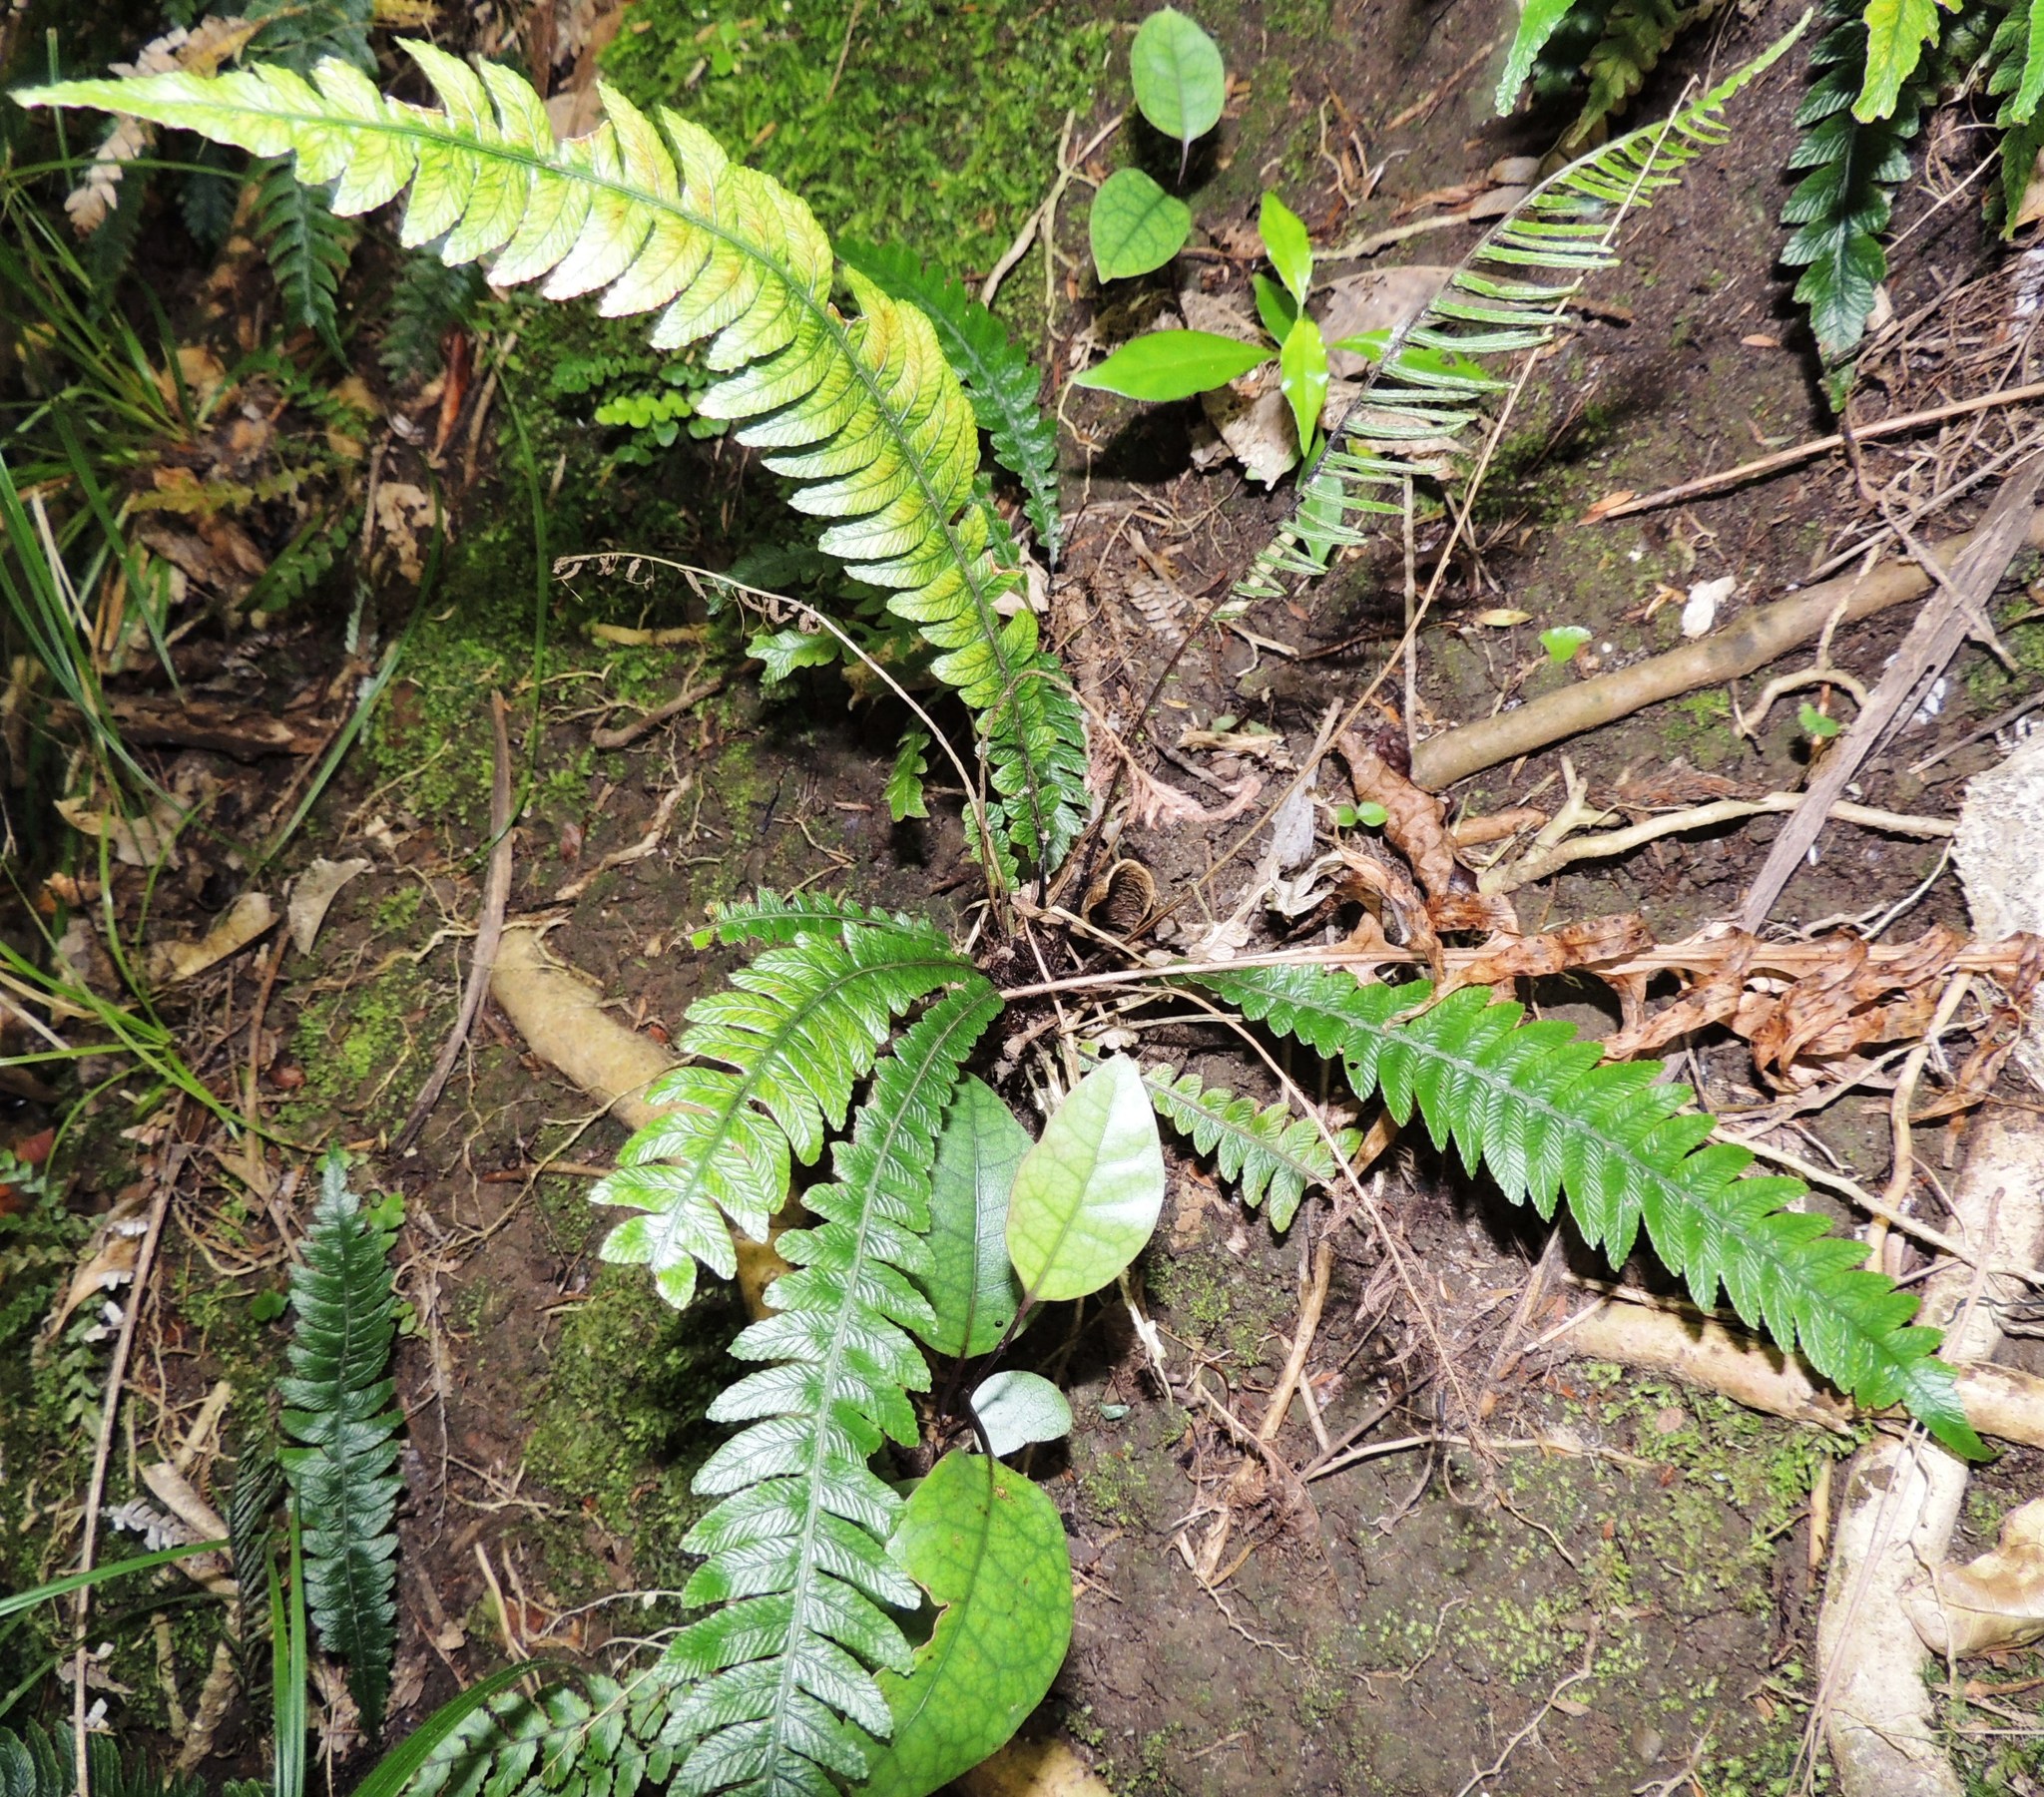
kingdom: Plantae
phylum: Tracheophyta
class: Polypodiopsida
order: Polypodiales
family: Blechnaceae
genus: Austroblechnum
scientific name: Austroblechnum lanceolatum
